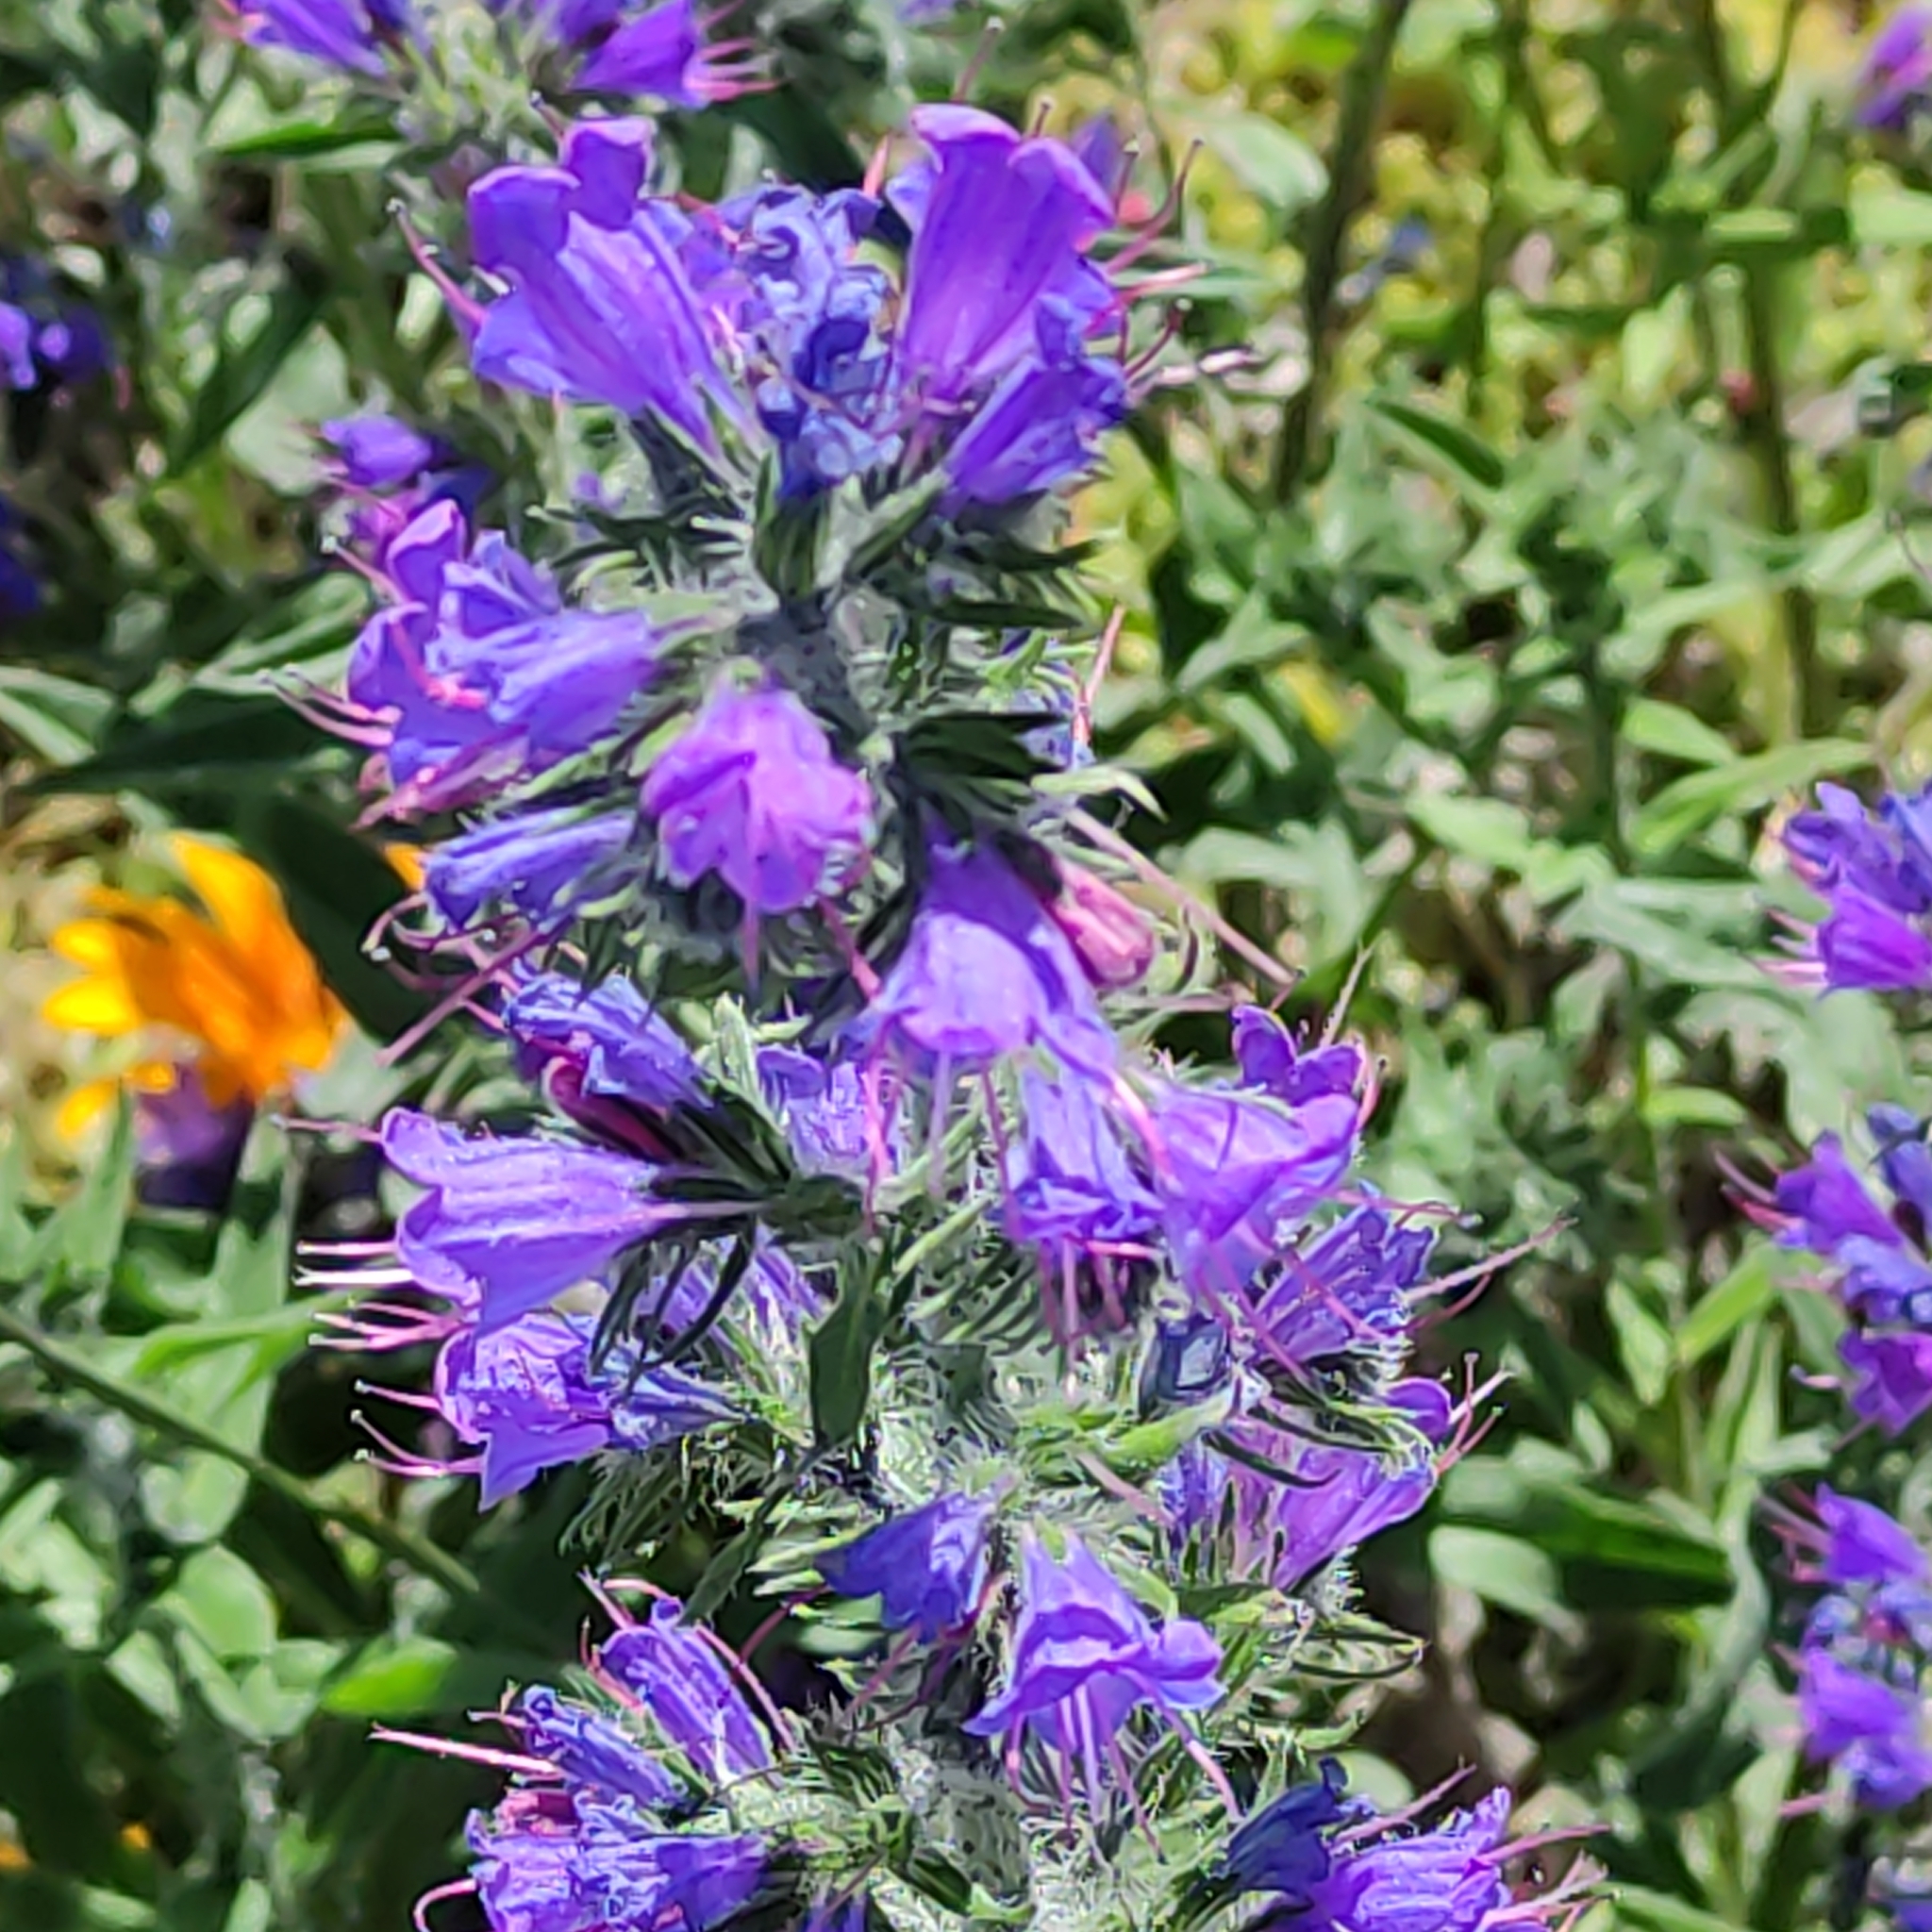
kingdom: Plantae
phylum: Tracheophyta
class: Magnoliopsida
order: Boraginales
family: Boraginaceae
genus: Echium
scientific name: Echium vulgare
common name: Common viper's bugloss
